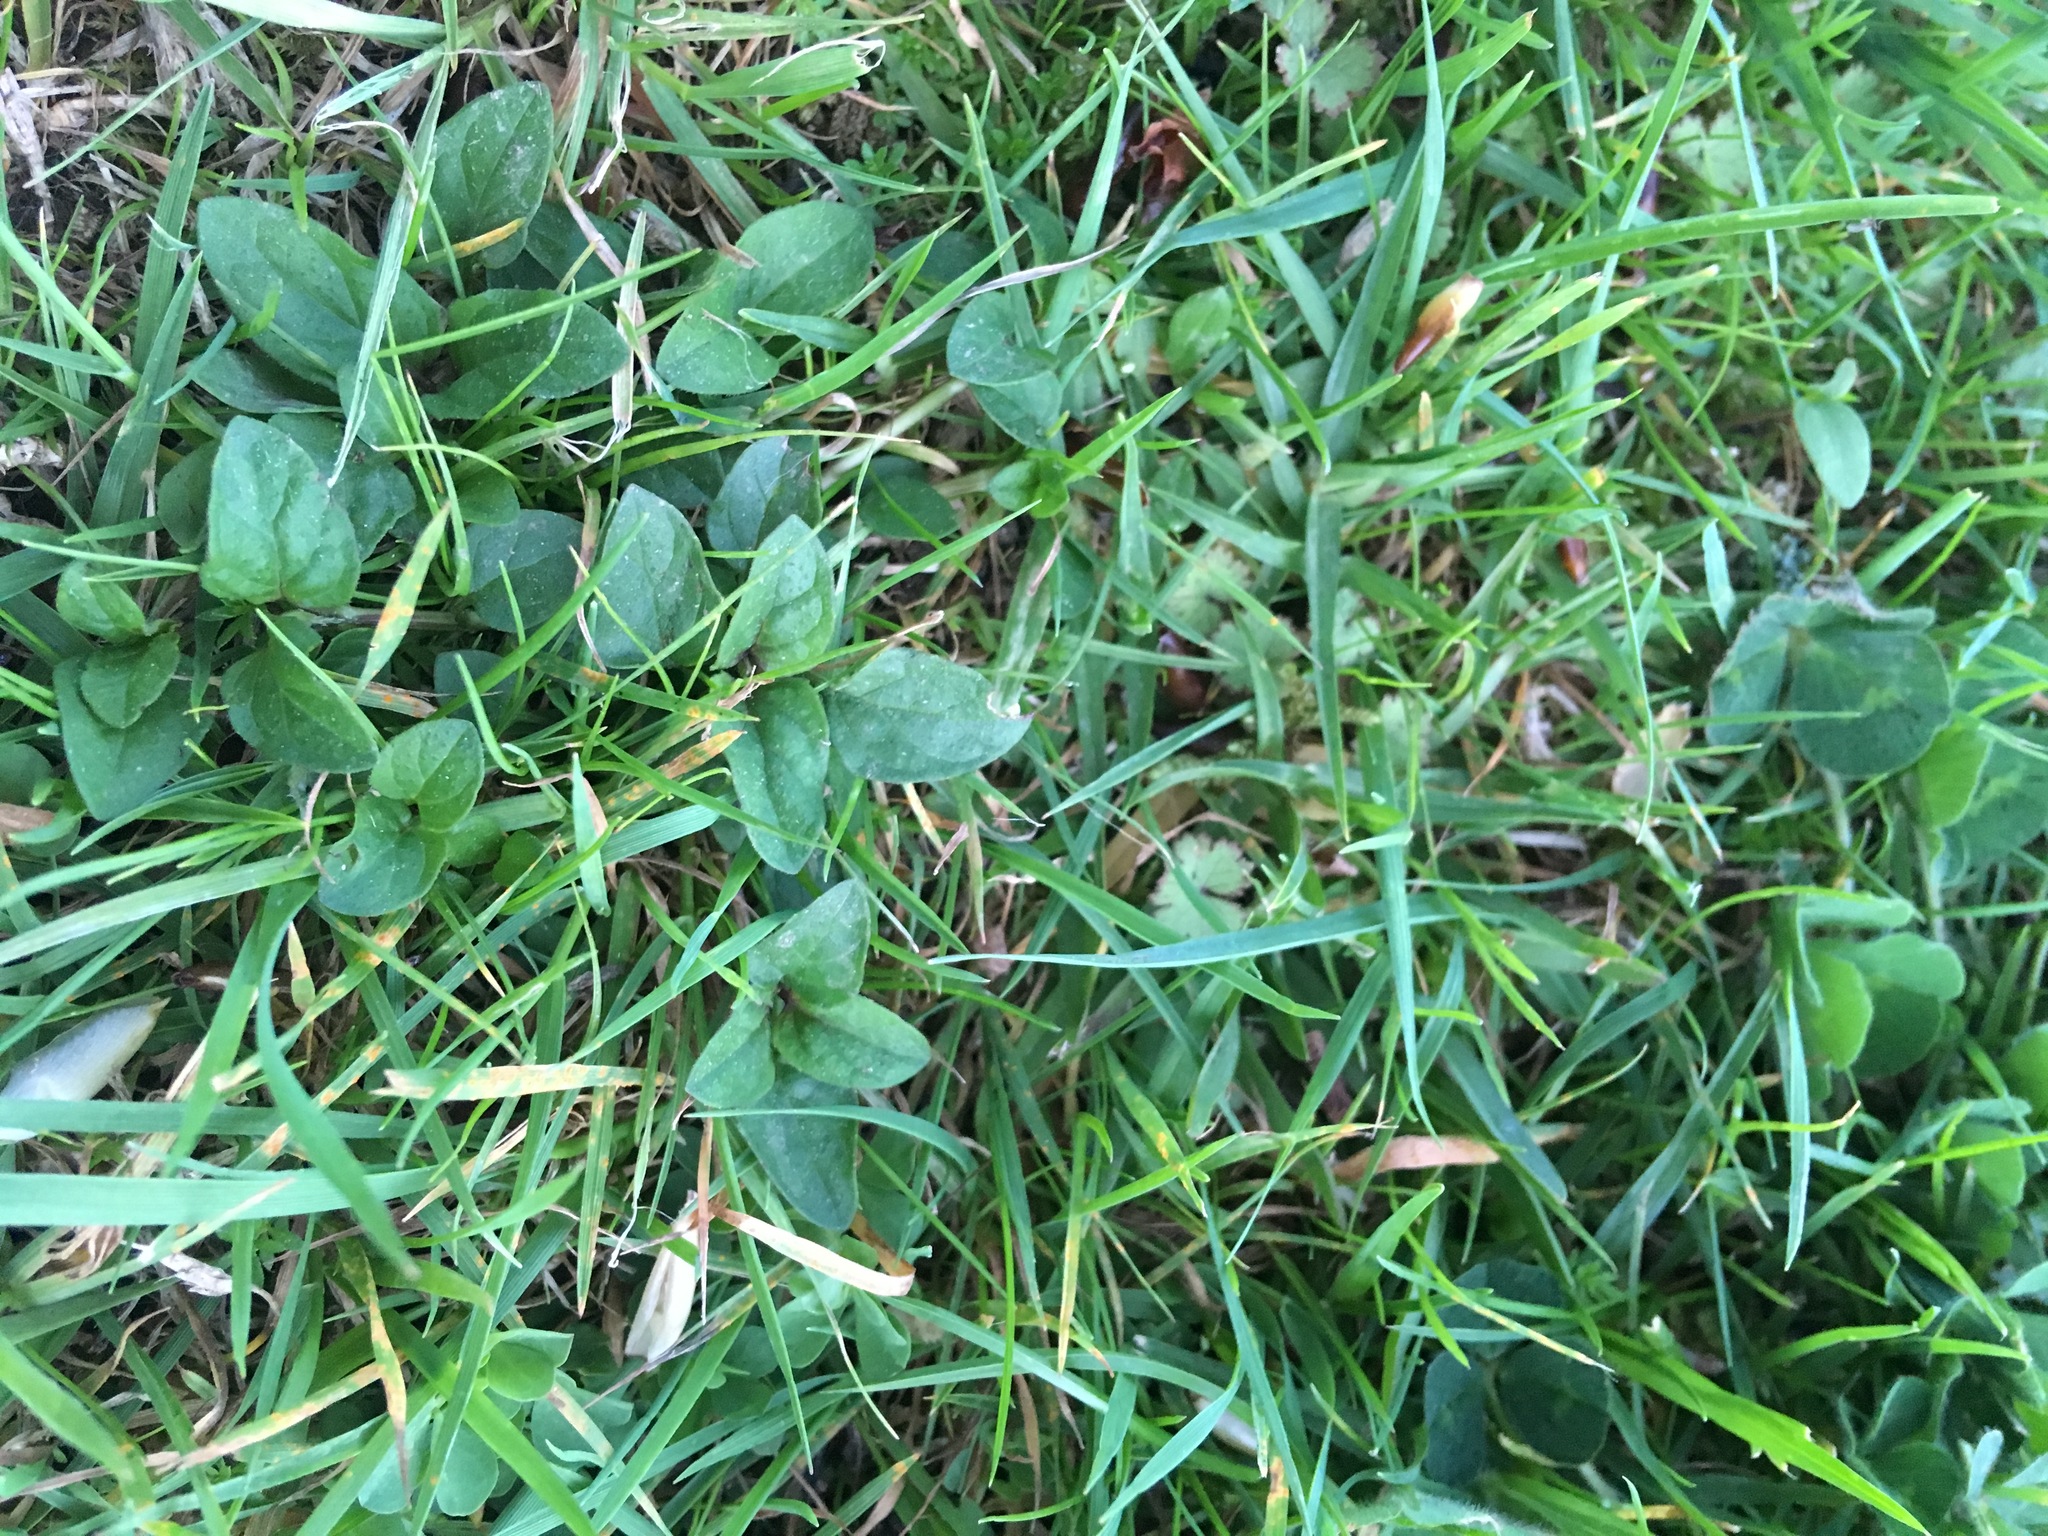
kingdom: Plantae
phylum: Tracheophyta
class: Magnoliopsida
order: Lamiales
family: Lamiaceae
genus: Prunella
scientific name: Prunella vulgaris
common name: Heal-all
